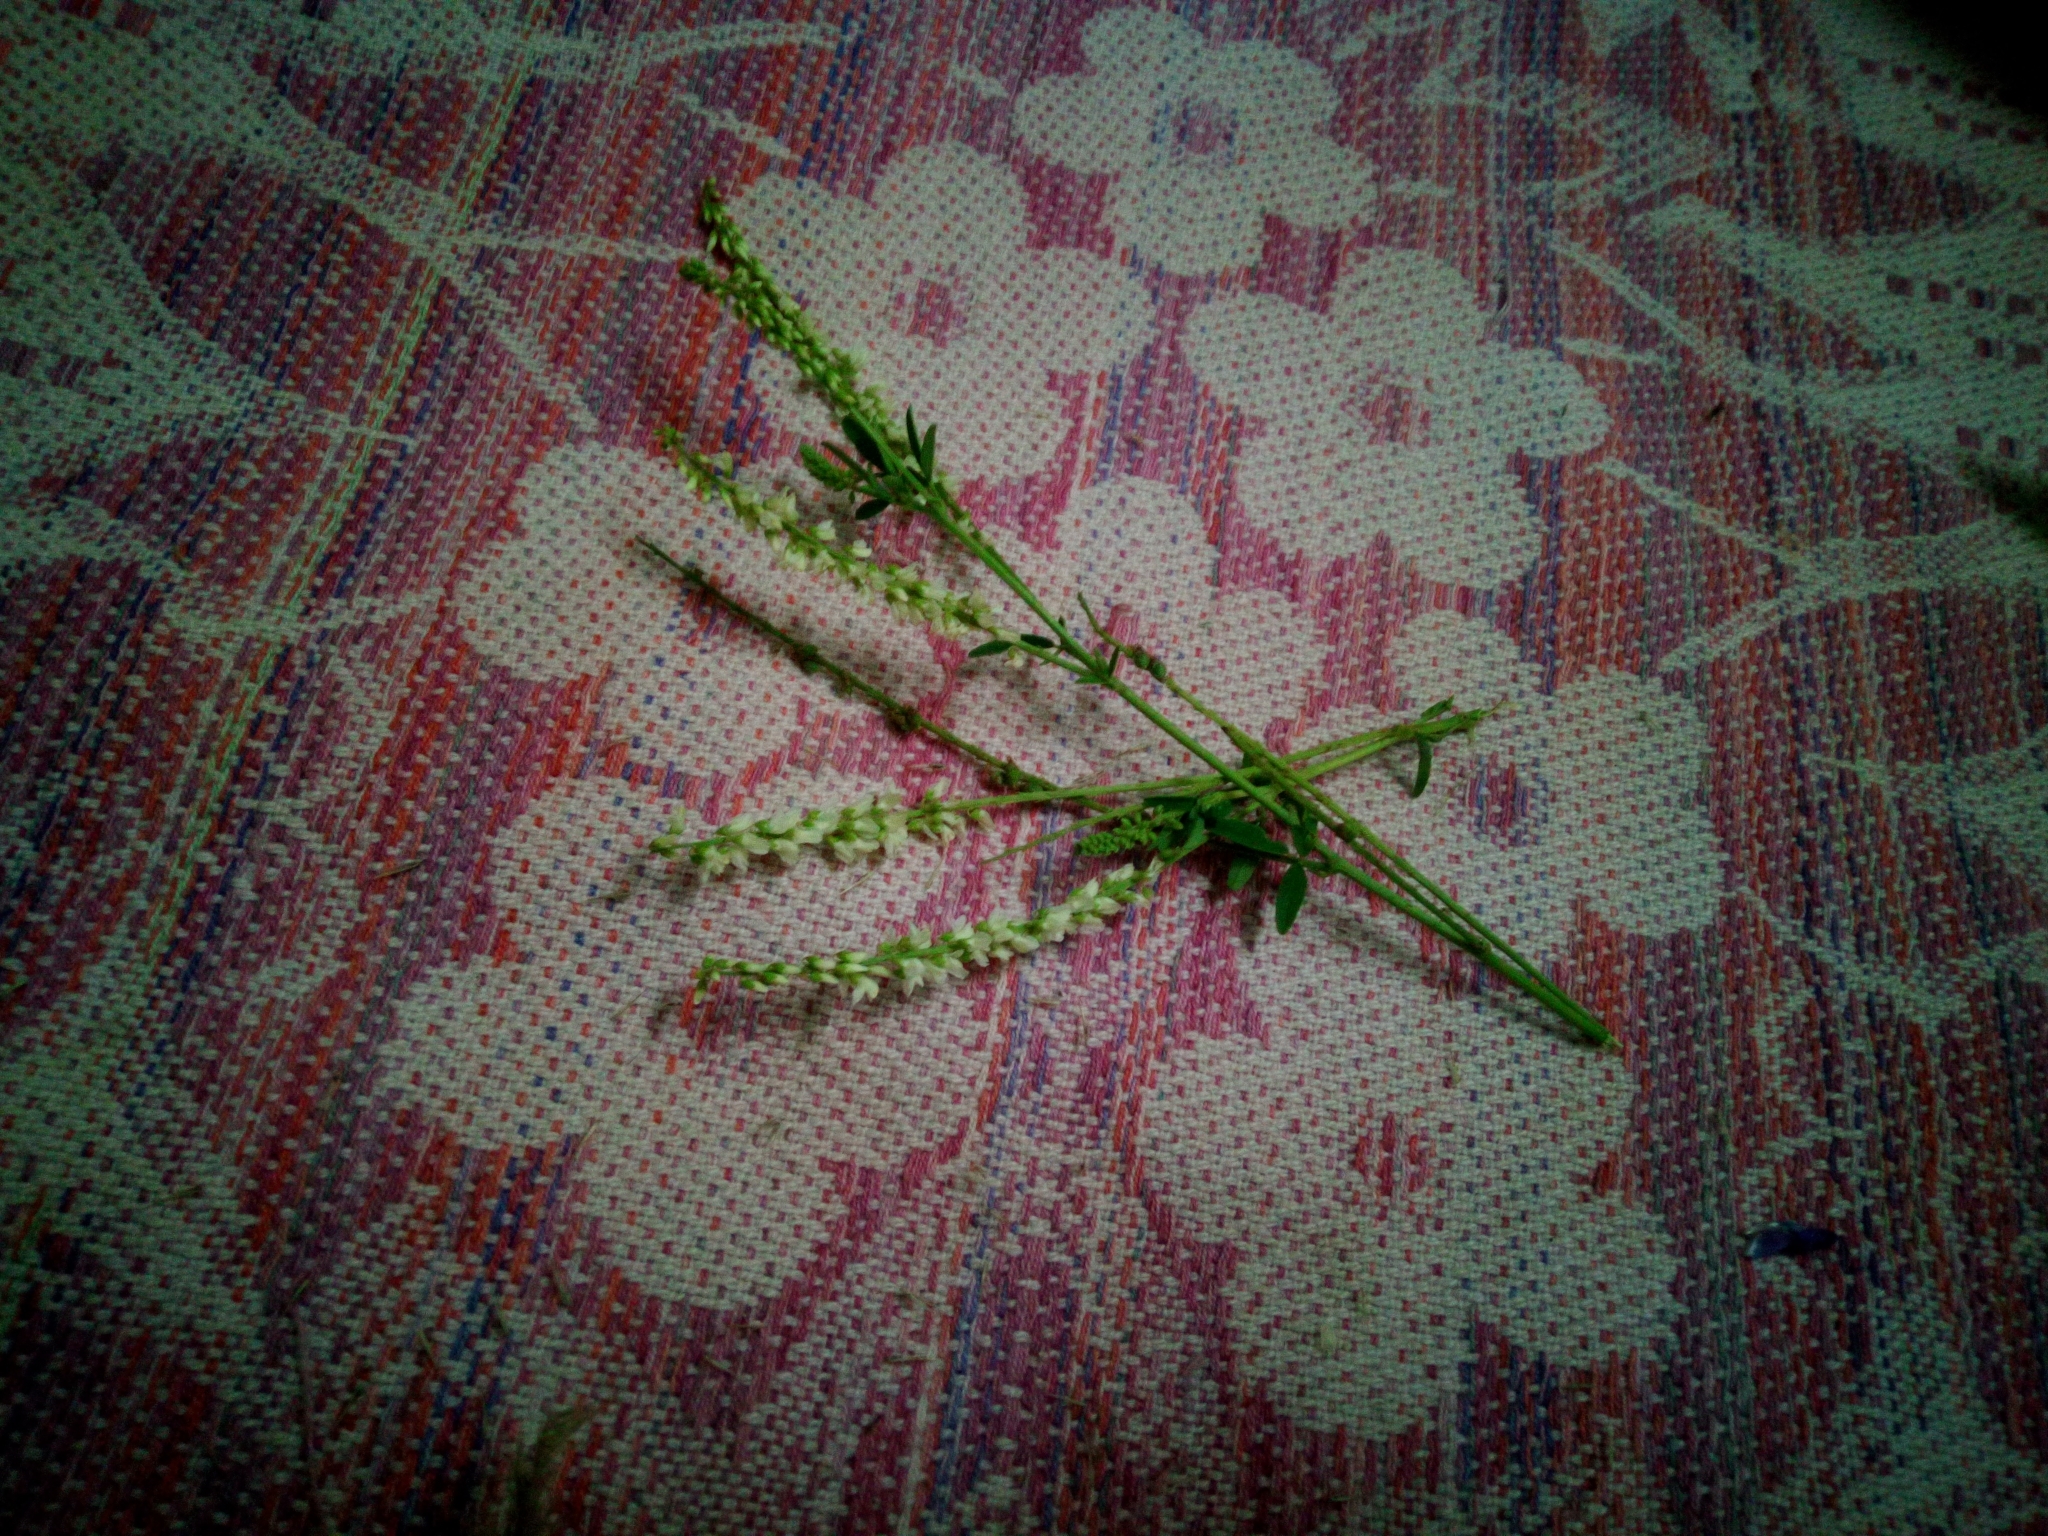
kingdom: Plantae
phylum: Tracheophyta
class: Magnoliopsida
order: Fabales
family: Fabaceae
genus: Melilotus
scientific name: Melilotus albus
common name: White melilot
